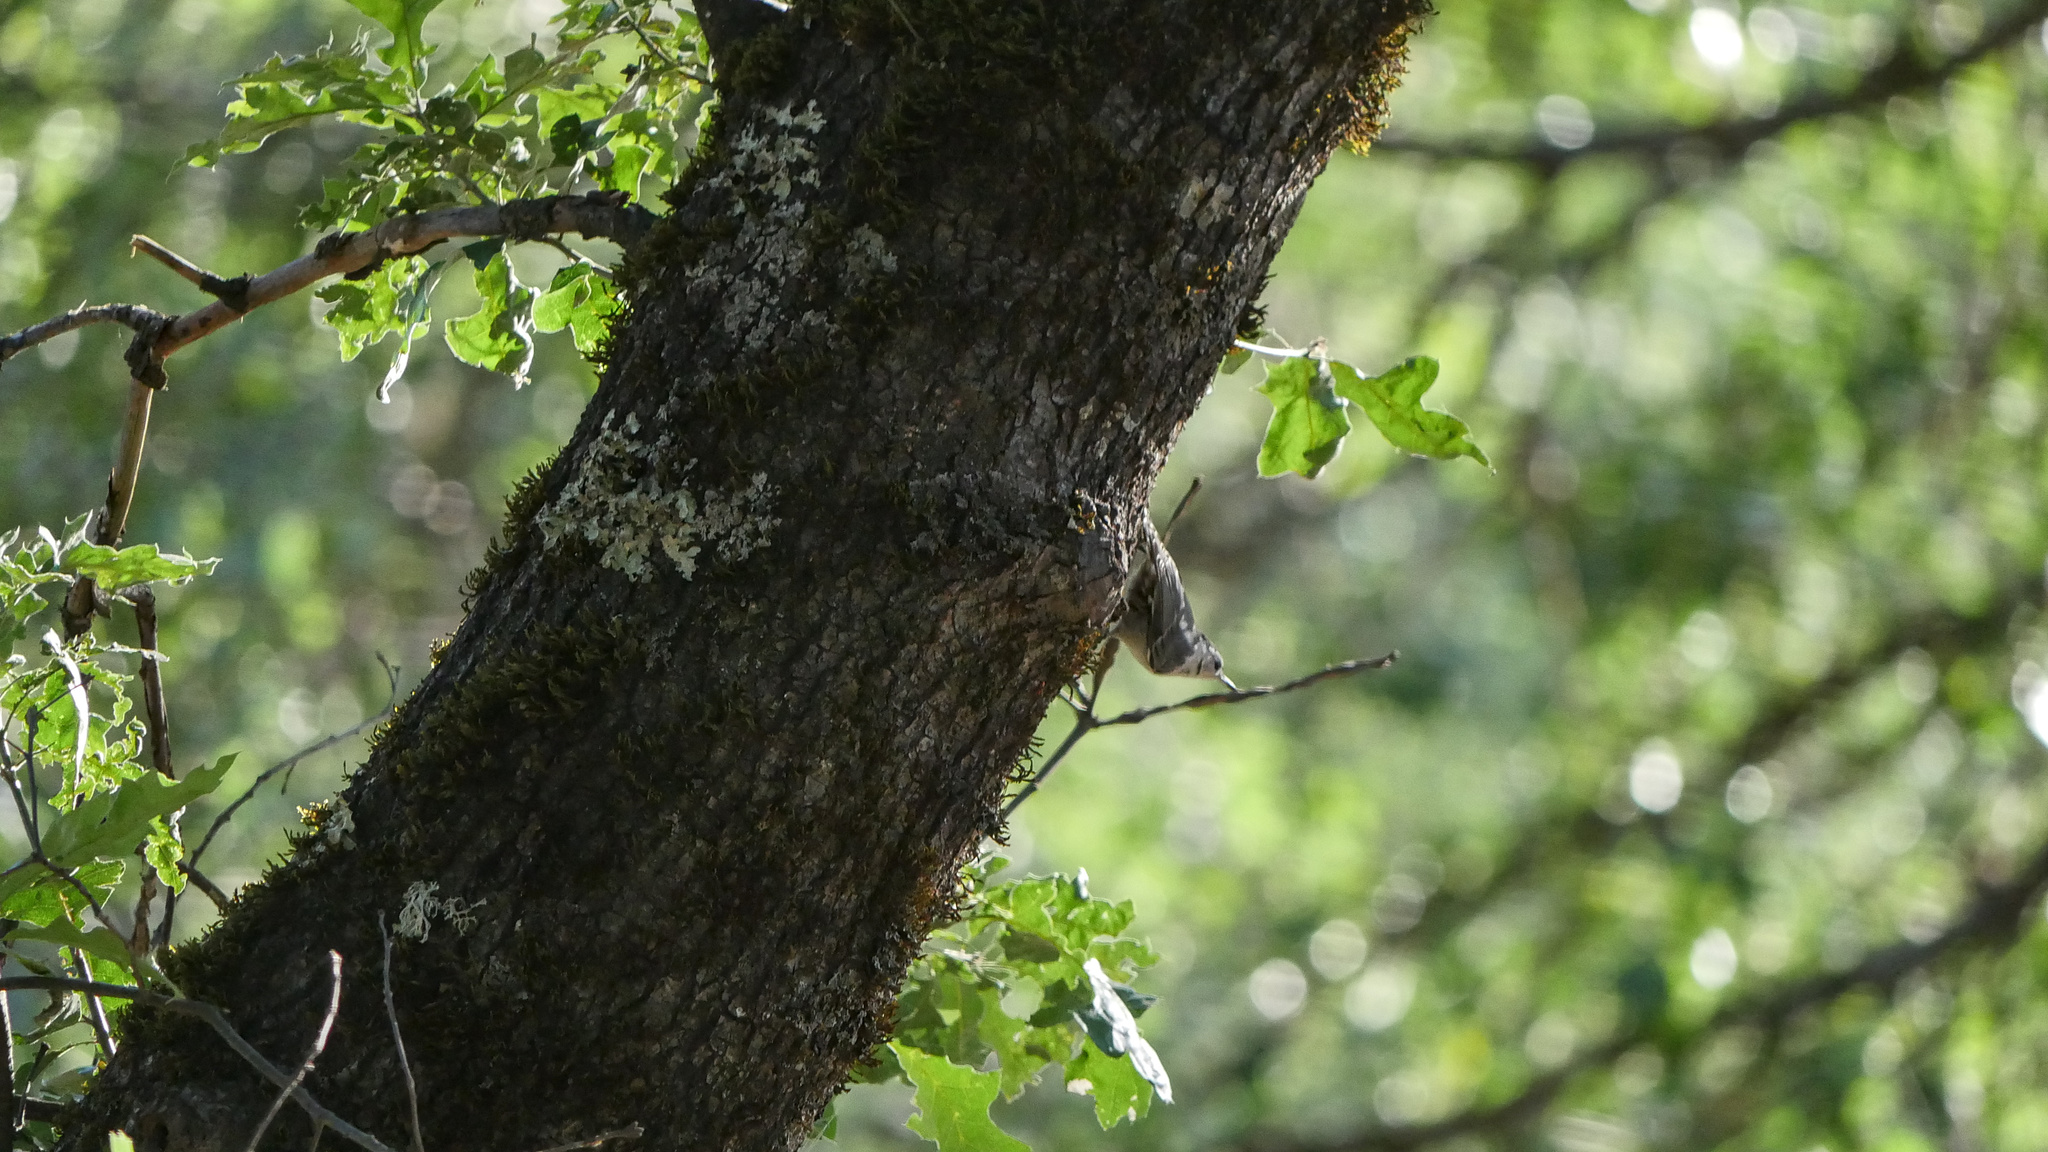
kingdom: Animalia
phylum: Chordata
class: Aves
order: Passeriformes
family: Sittidae
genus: Sitta
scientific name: Sitta carolinensis
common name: White-breasted nuthatch
